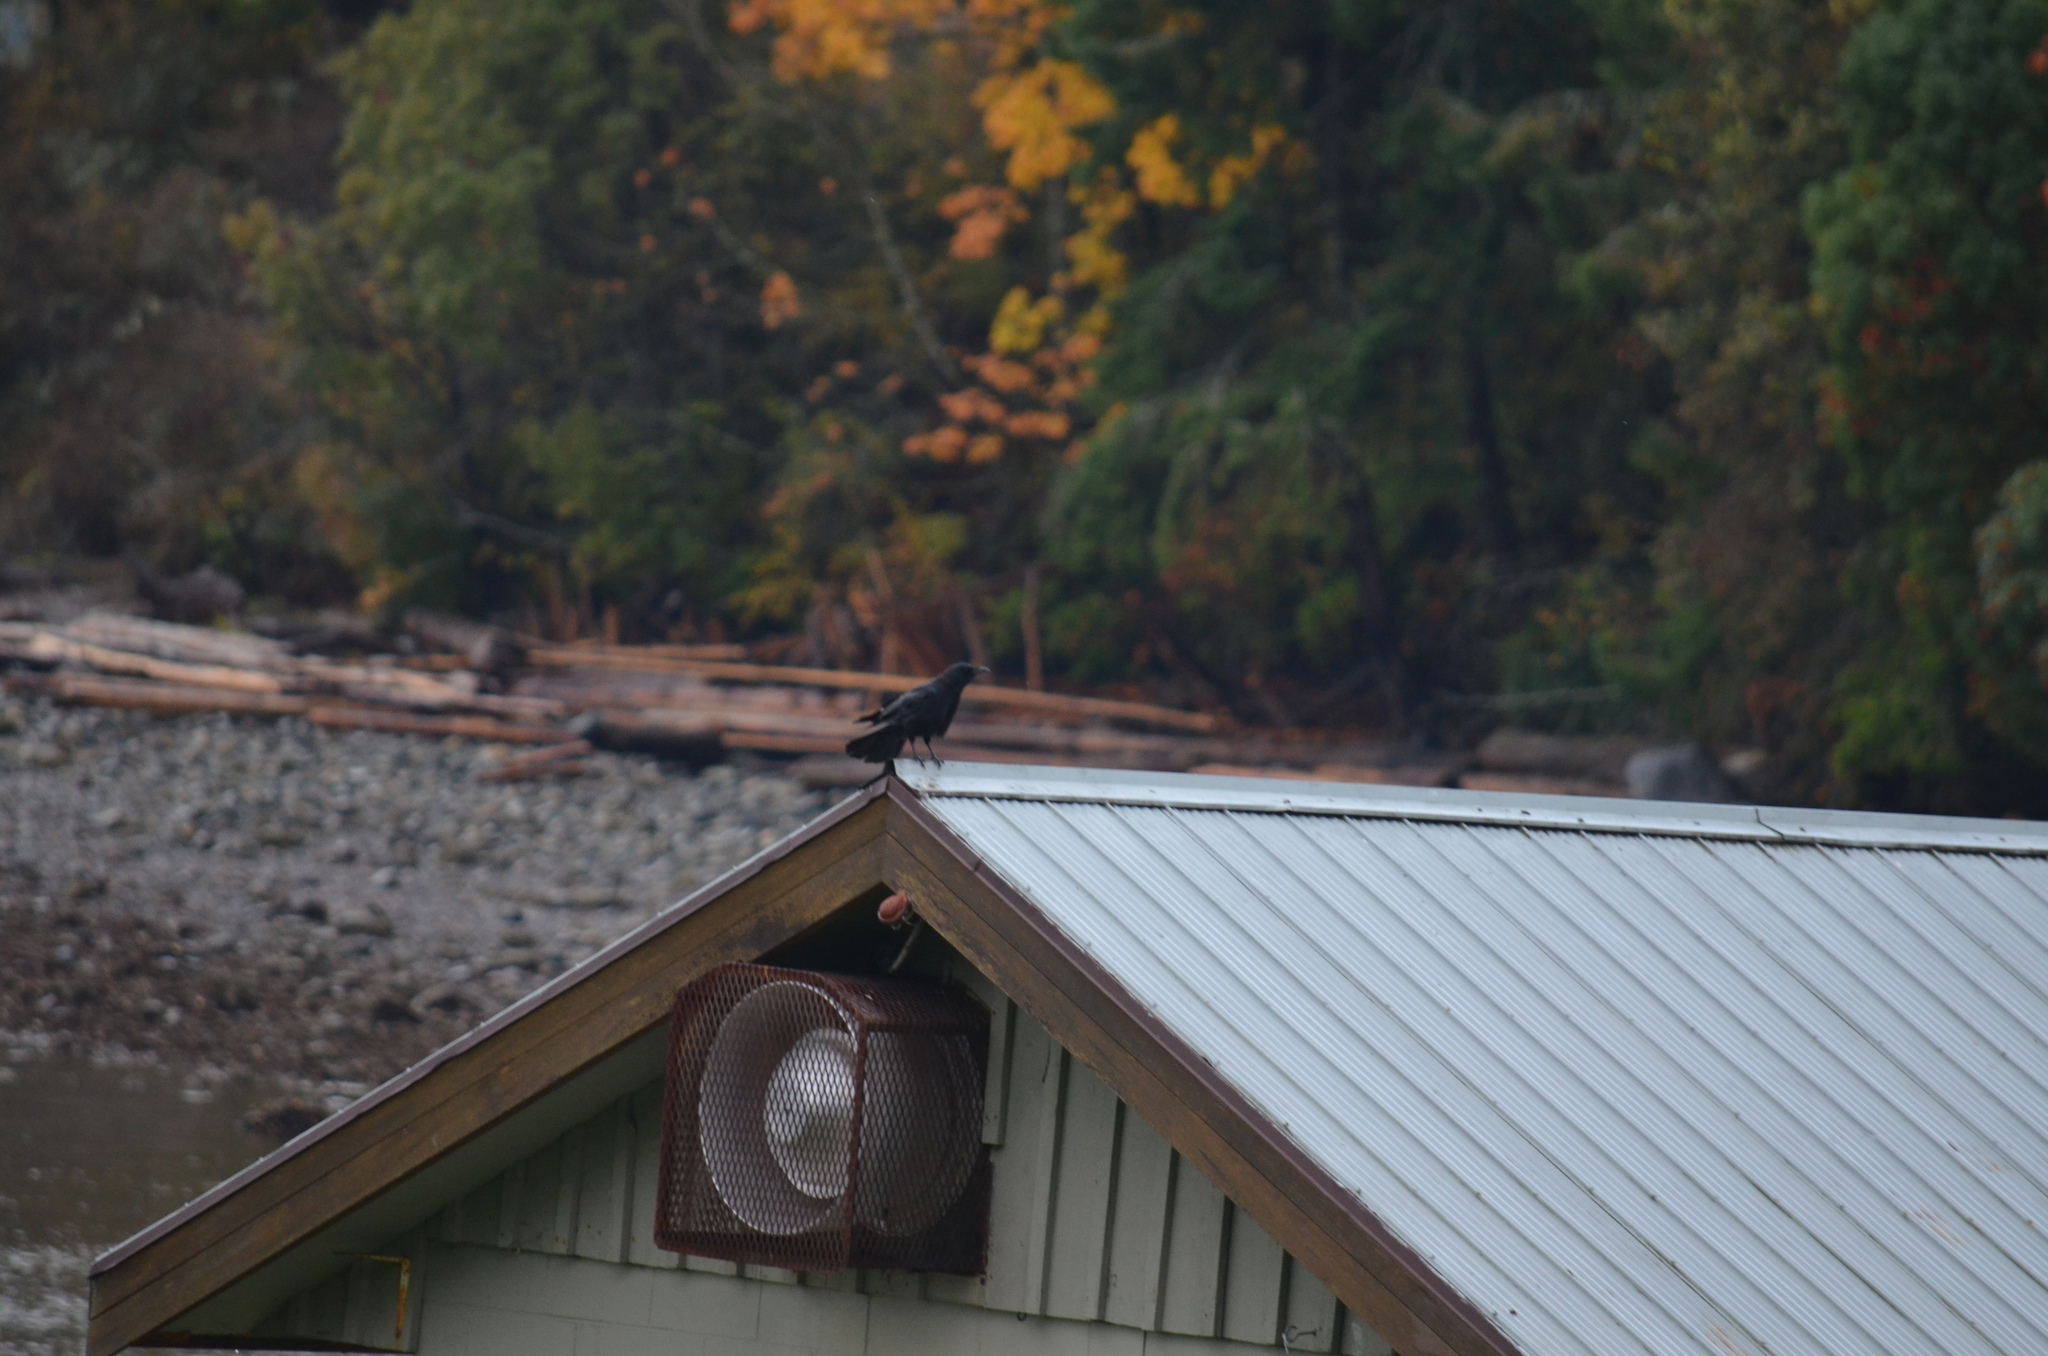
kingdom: Animalia
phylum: Chordata
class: Aves
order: Passeriformes
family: Corvidae
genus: Corvus
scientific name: Corvus brachyrhynchos
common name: American crow
